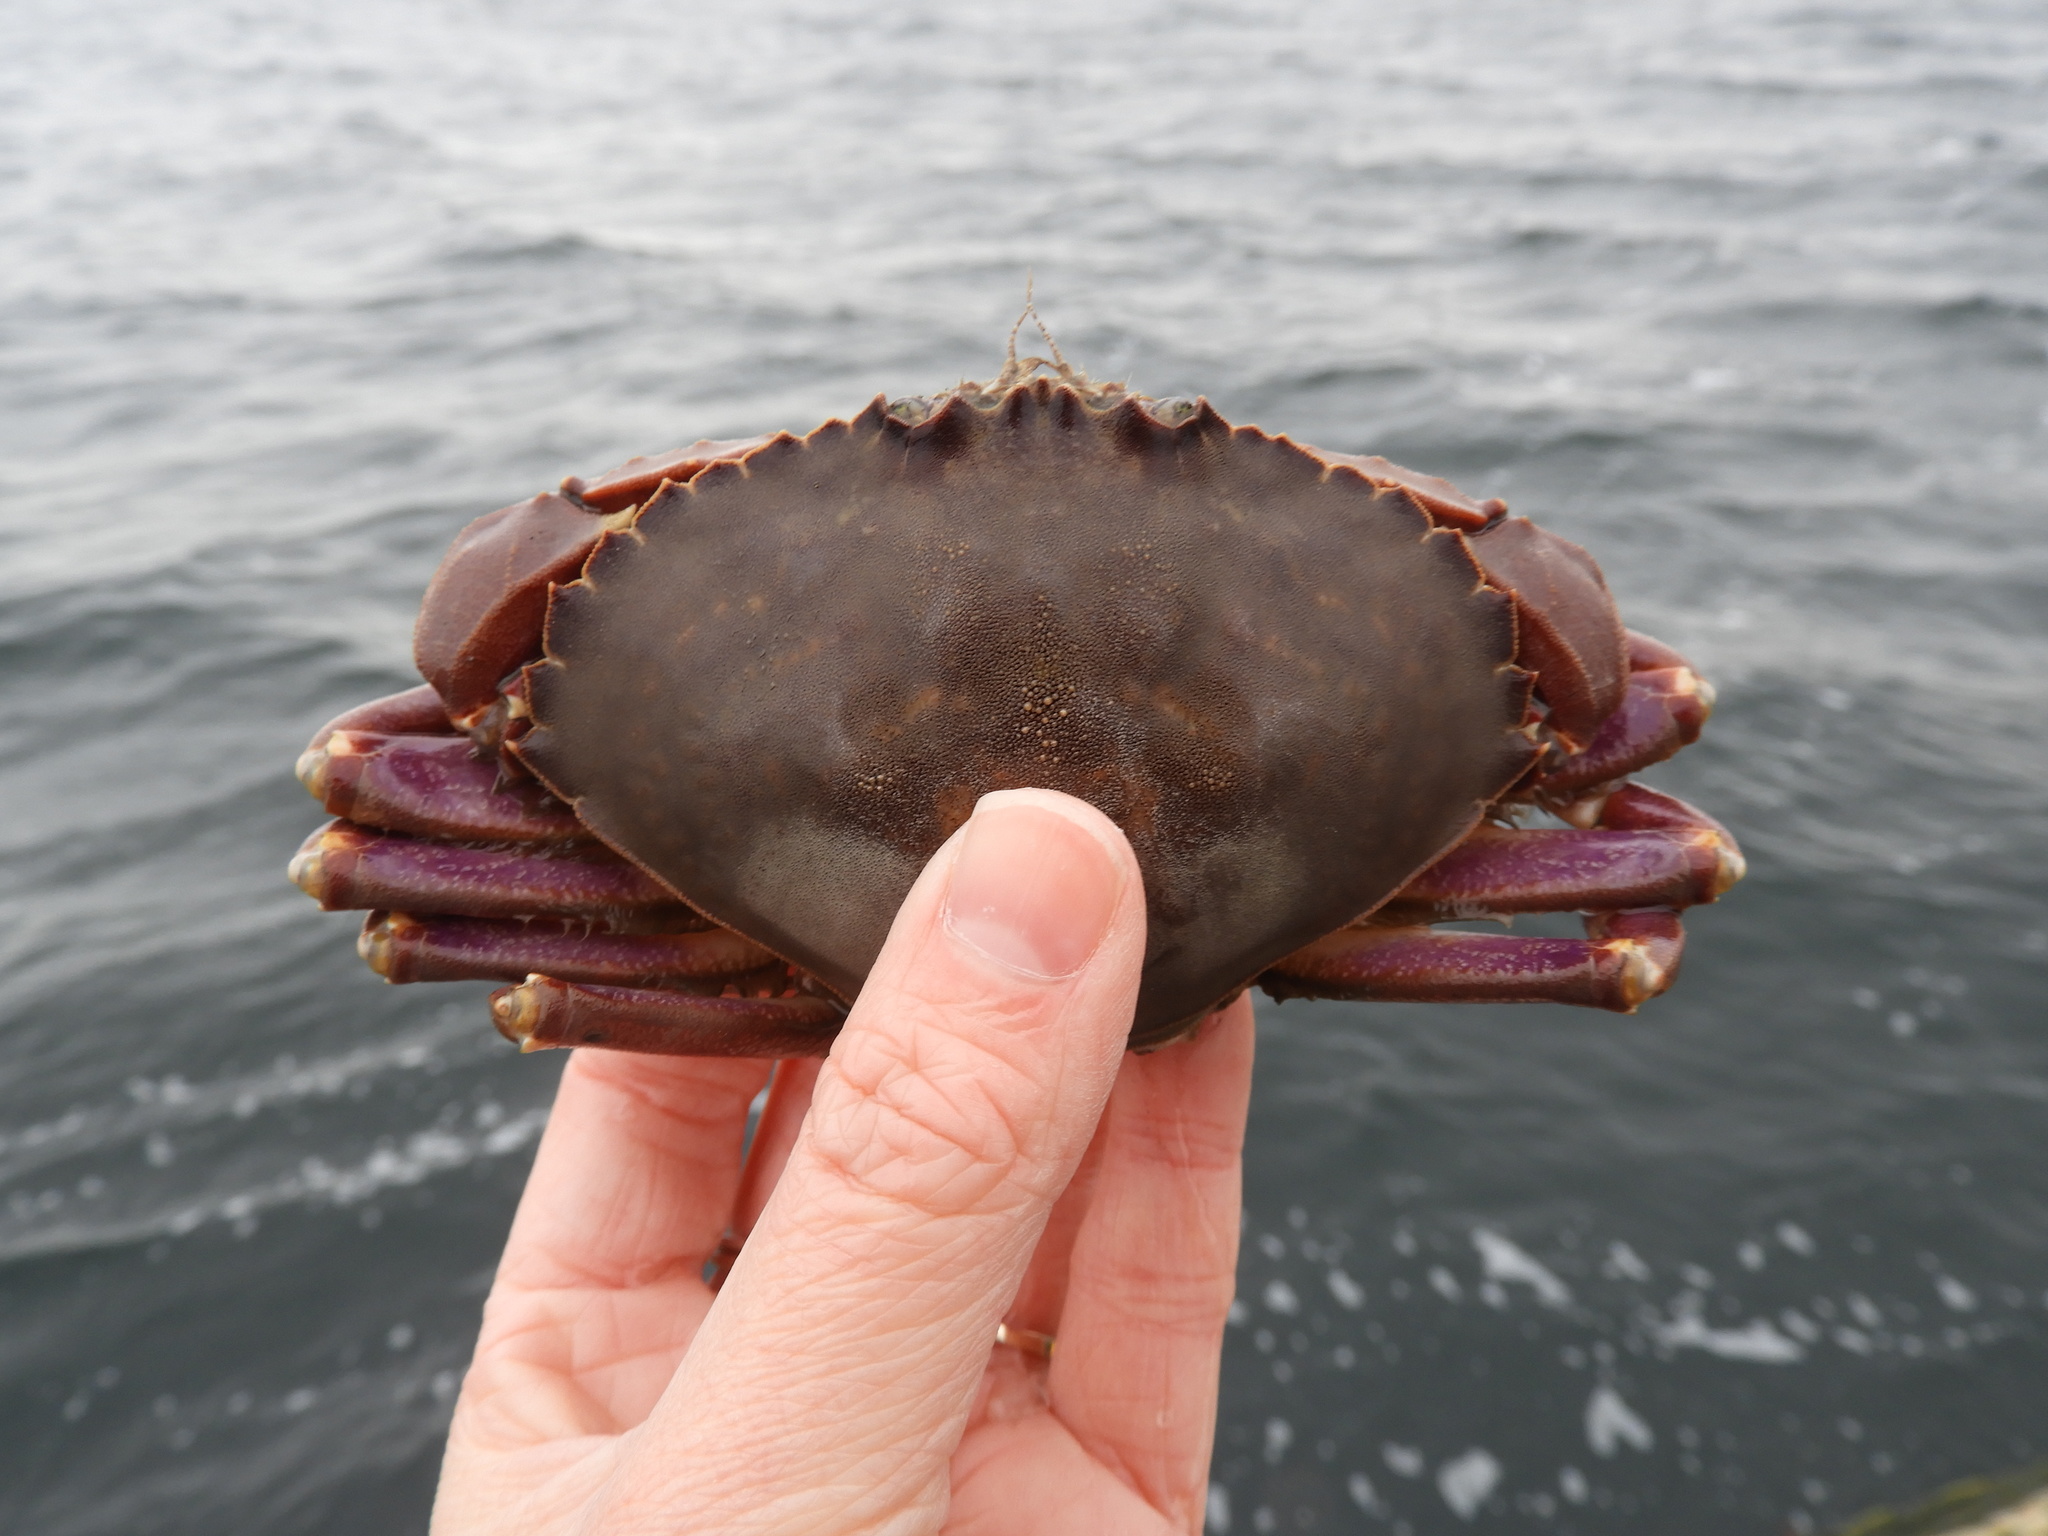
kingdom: Animalia
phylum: Arthropoda
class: Malacostraca
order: Decapoda
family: Cancridae
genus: Metacarcinus
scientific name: Metacarcinus gracilis
